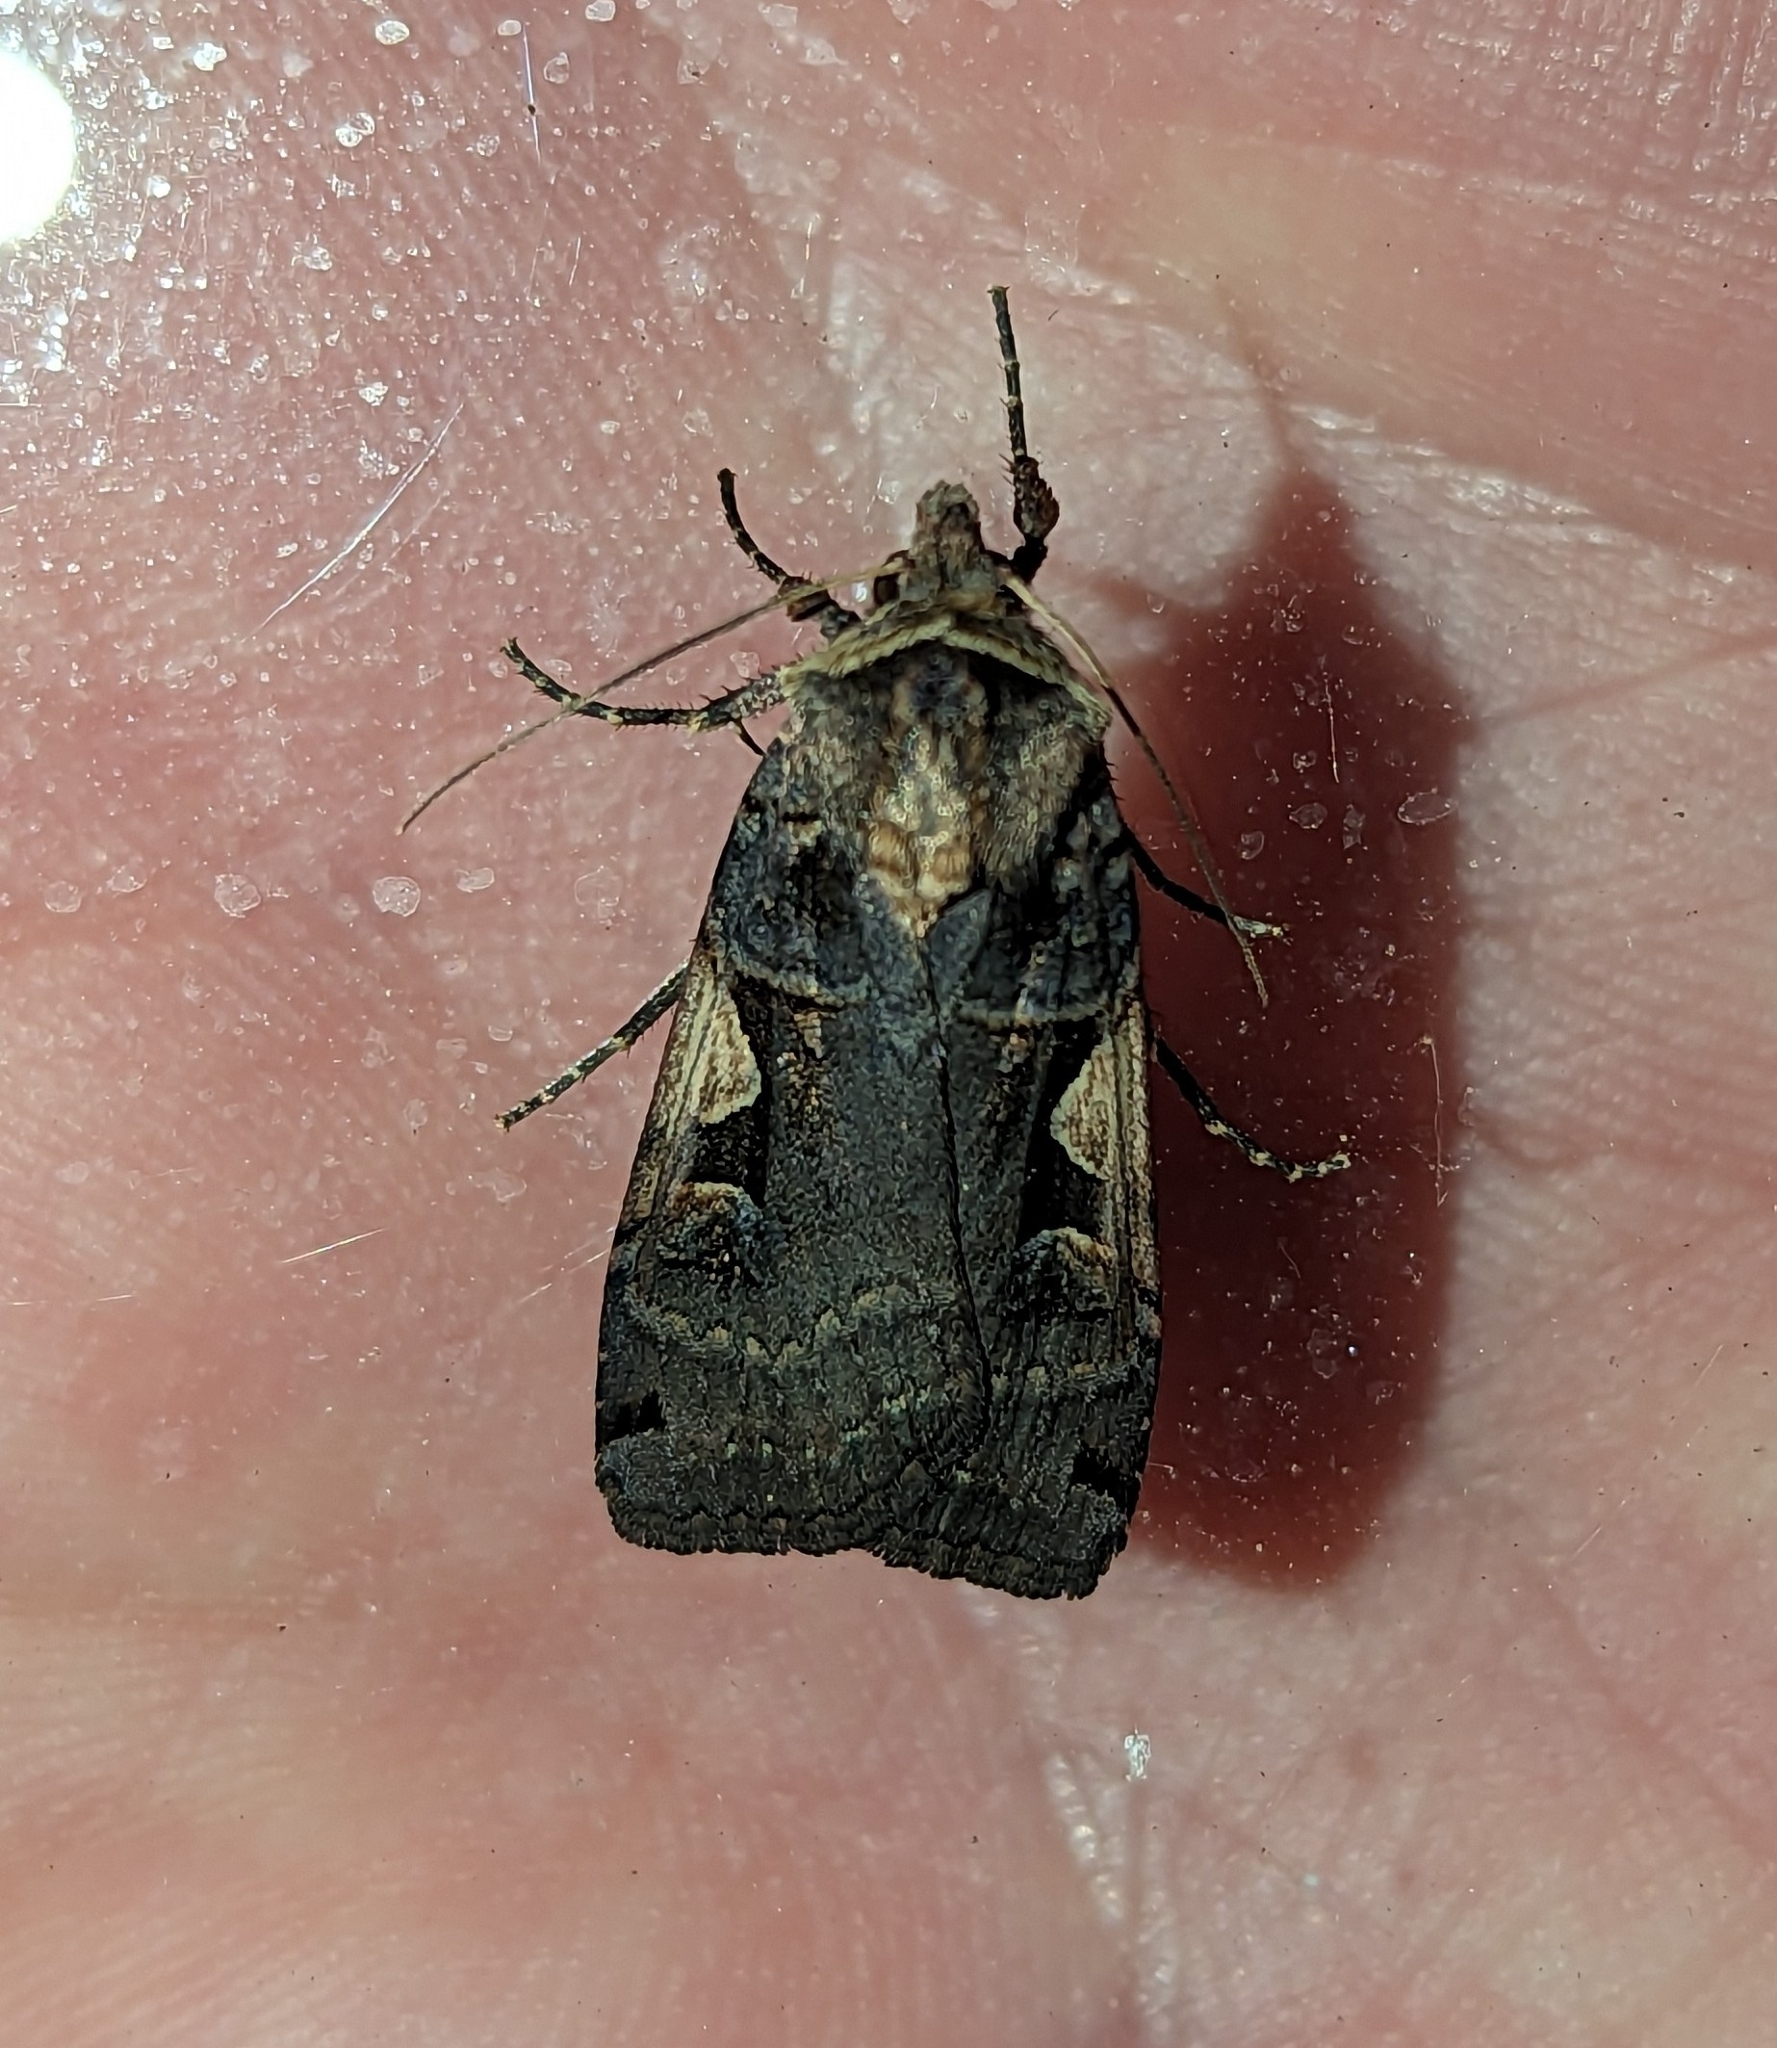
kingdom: Animalia
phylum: Arthropoda
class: Insecta
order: Lepidoptera
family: Noctuidae
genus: Xestia
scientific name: Xestia c-nigrum
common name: Setaceous hebrew character
